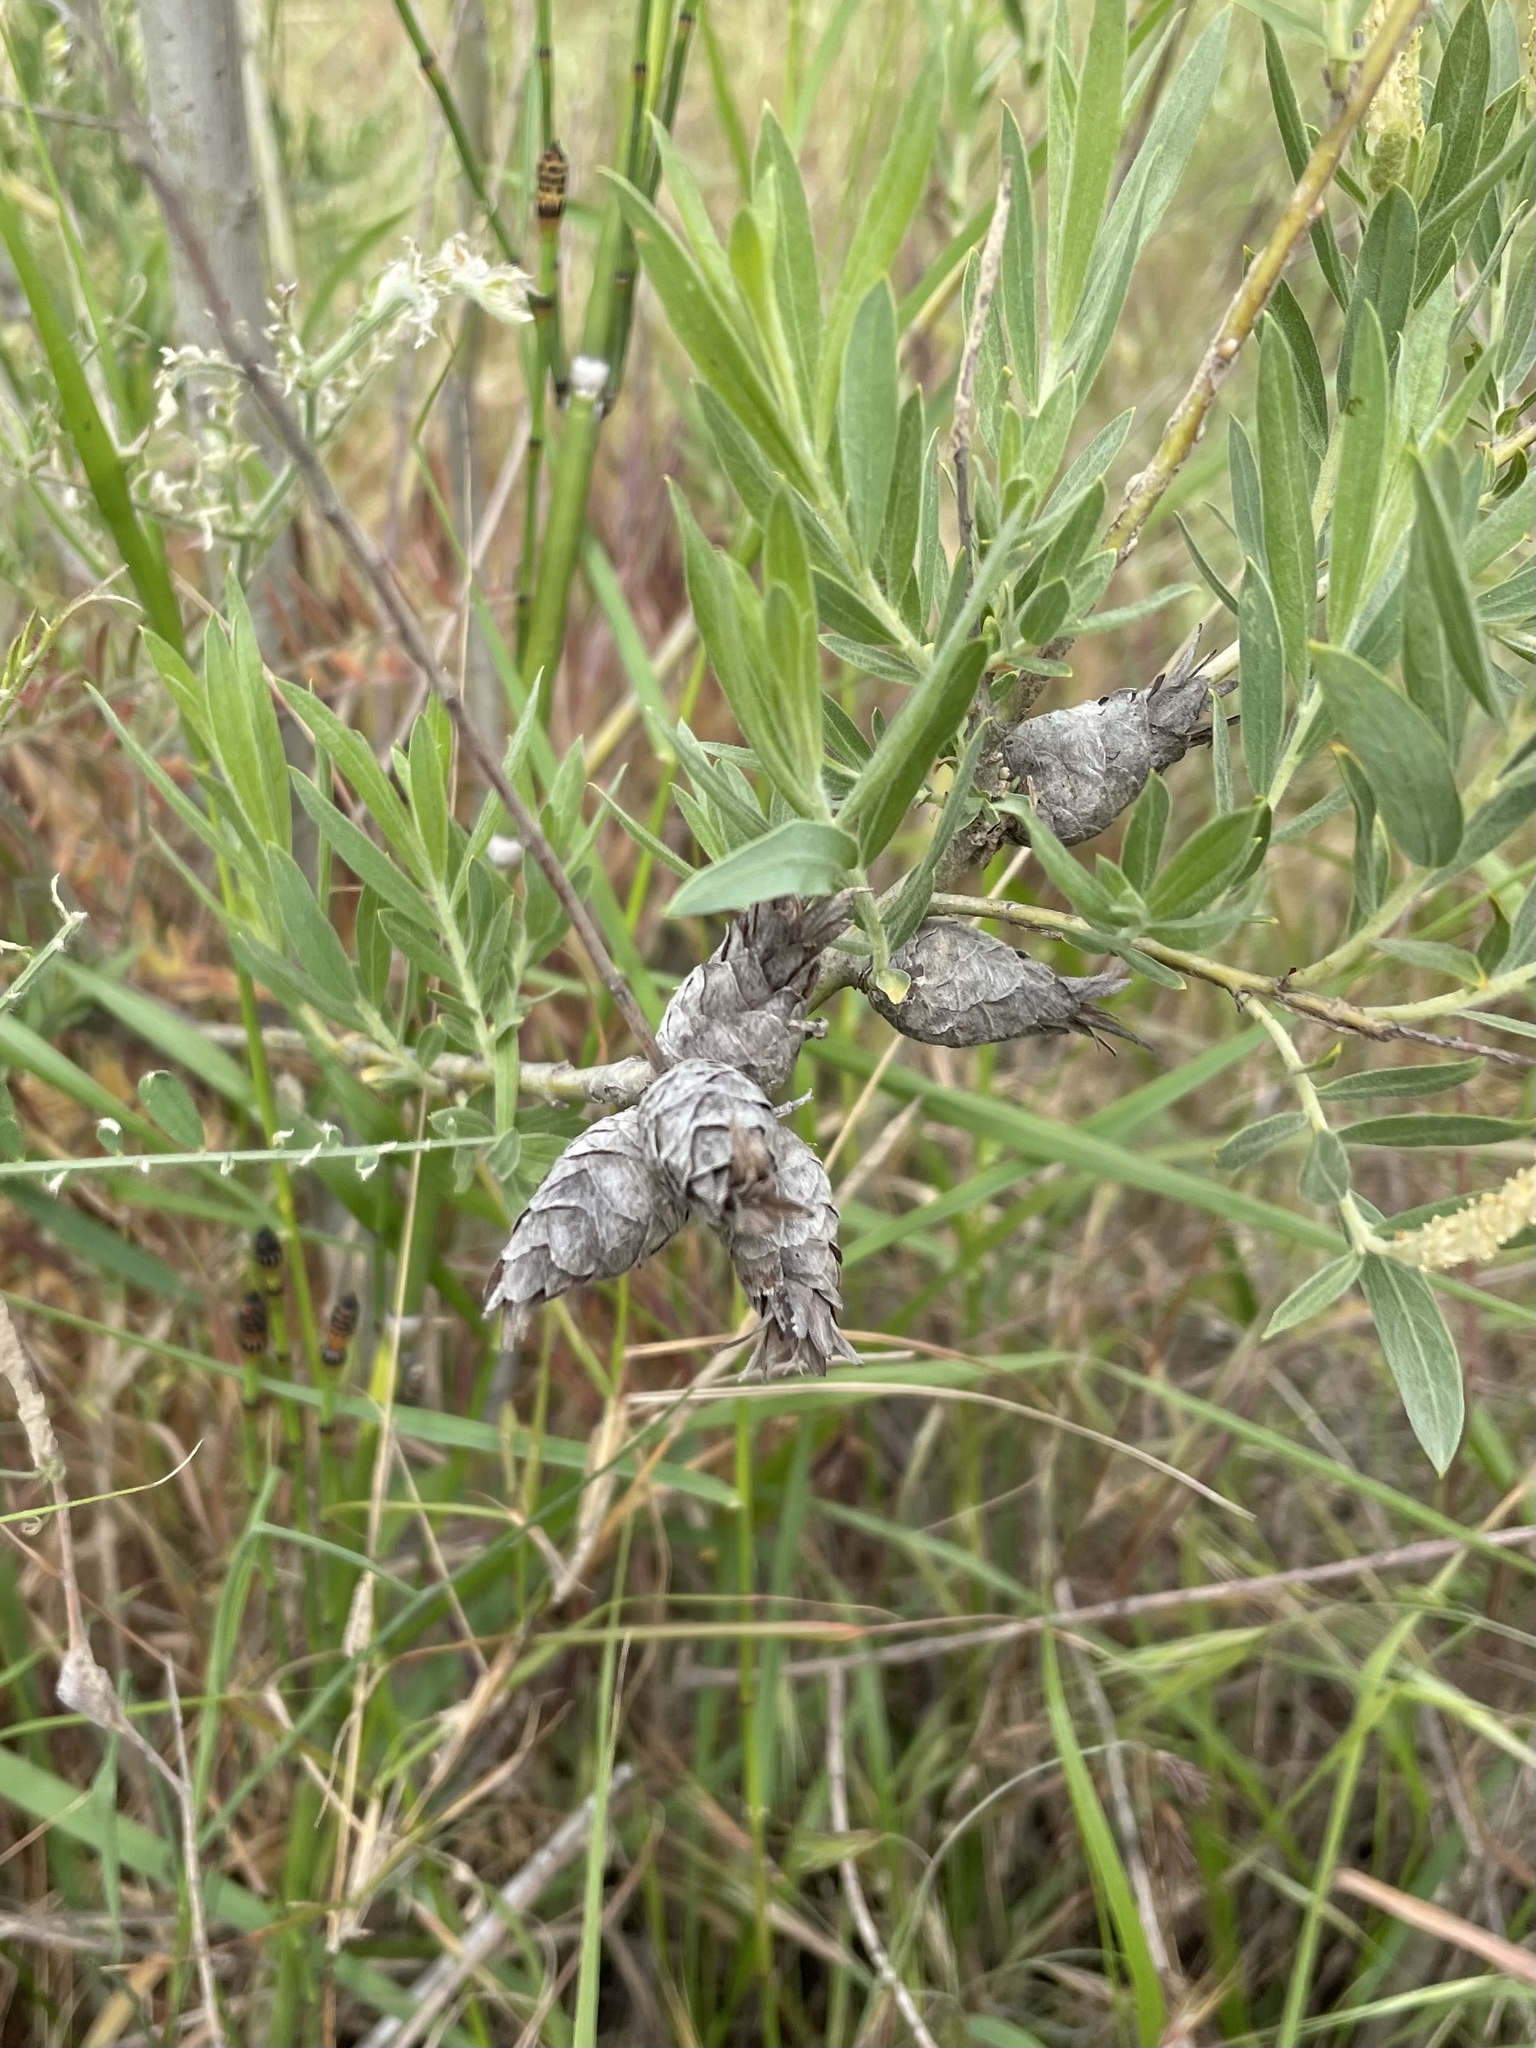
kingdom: Animalia
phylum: Arthropoda
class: Insecta
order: Diptera
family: Cecidomyiidae
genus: Rabdophaga
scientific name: Rabdophaga strobiloides
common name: Willow pinecone gall midge
